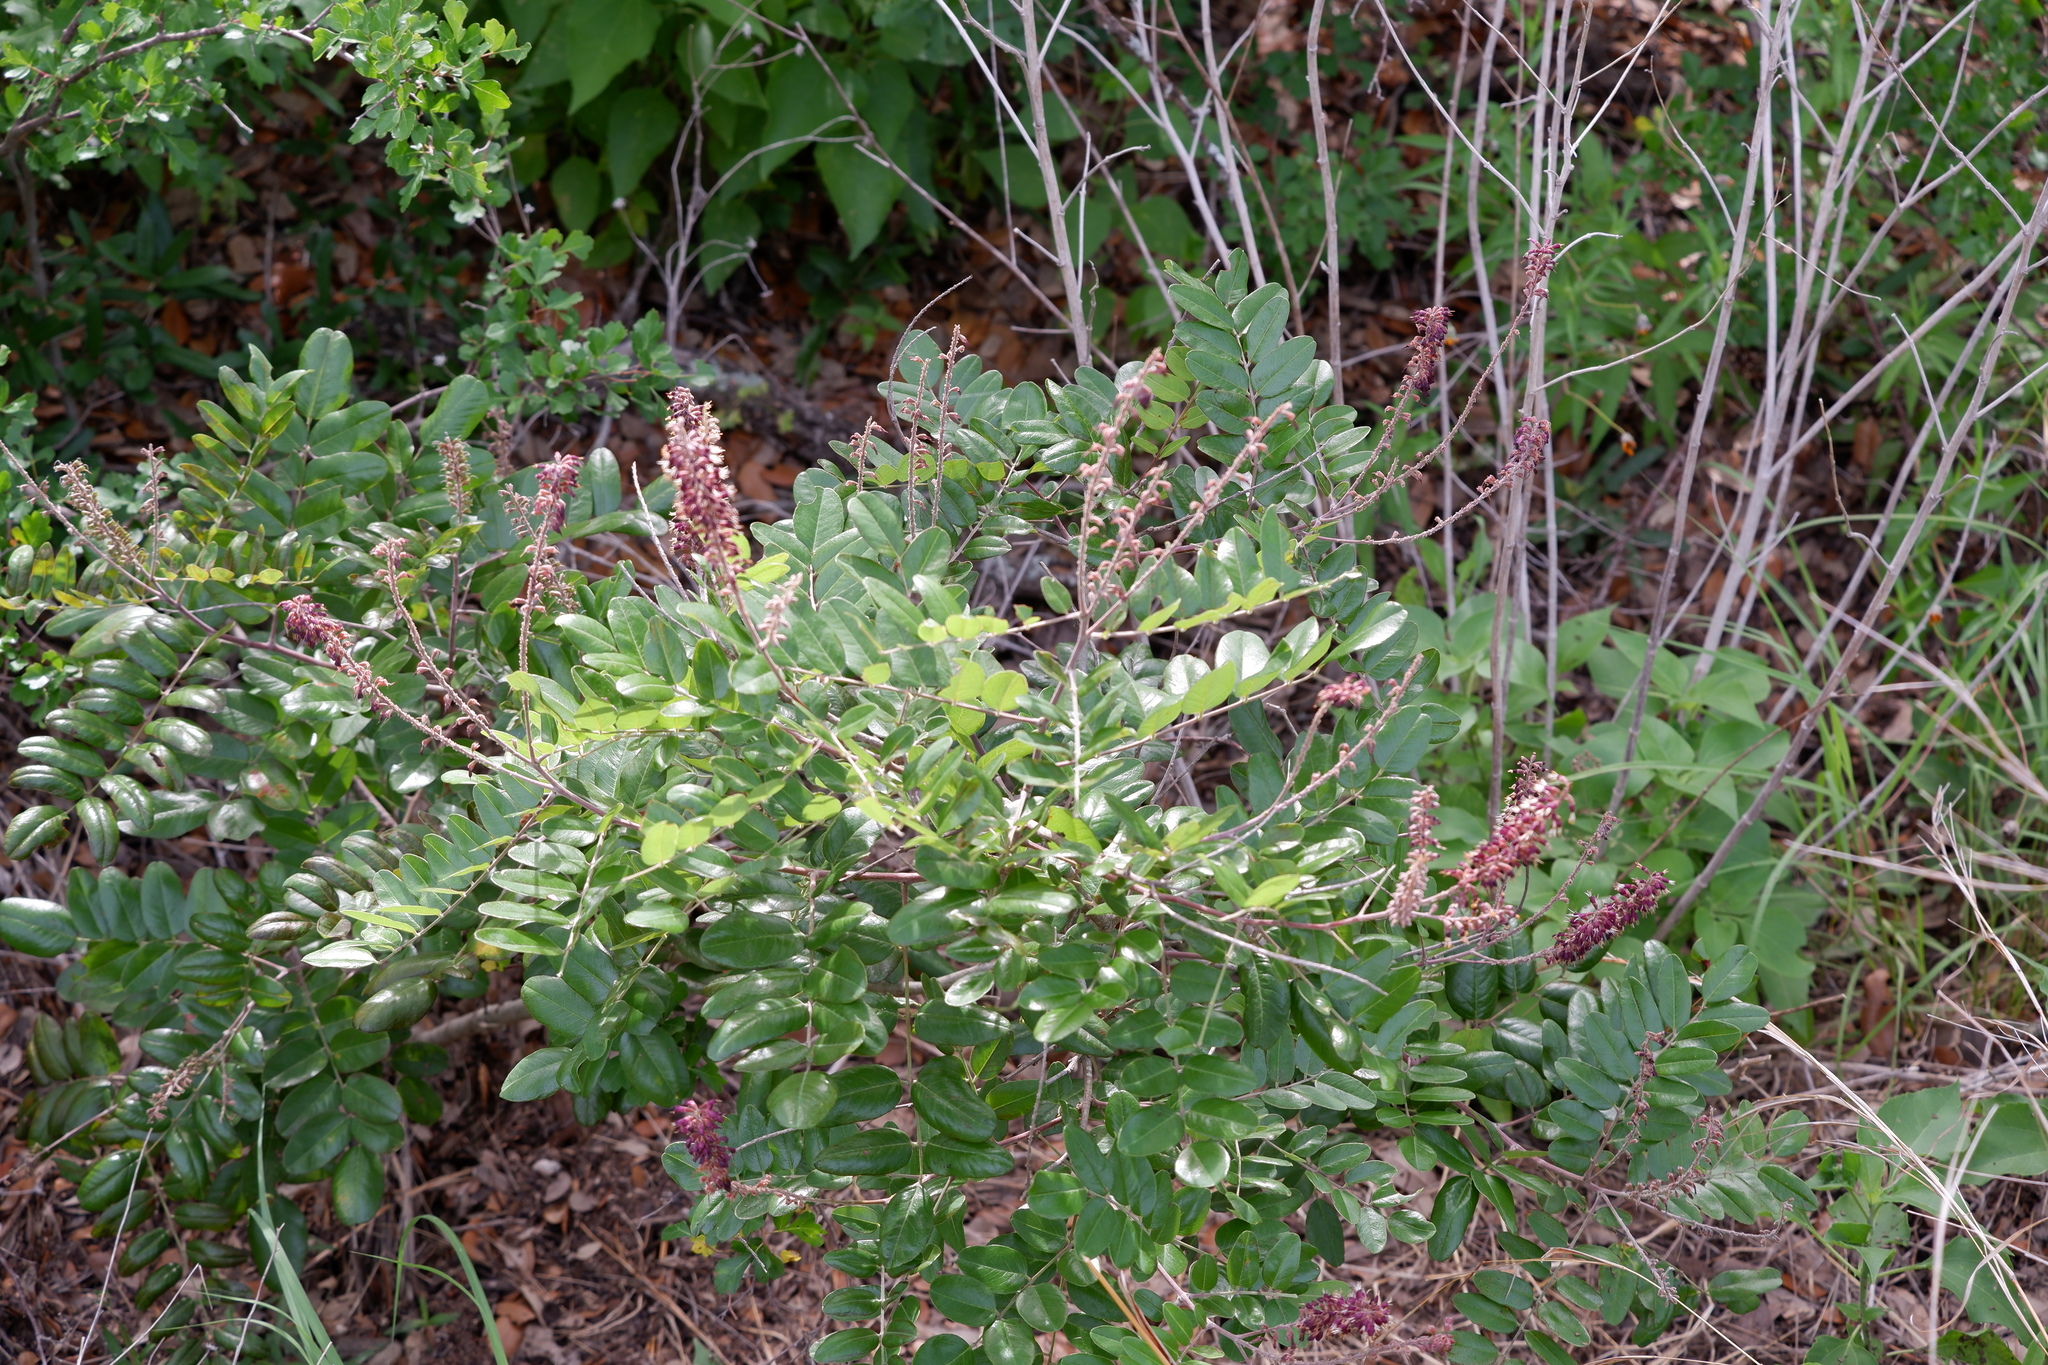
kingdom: Plantae
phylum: Tracheophyta
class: Magnoliopsida
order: Fabales
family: Fabaceae
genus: Amorpha
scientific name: Amorpha roemeriana
